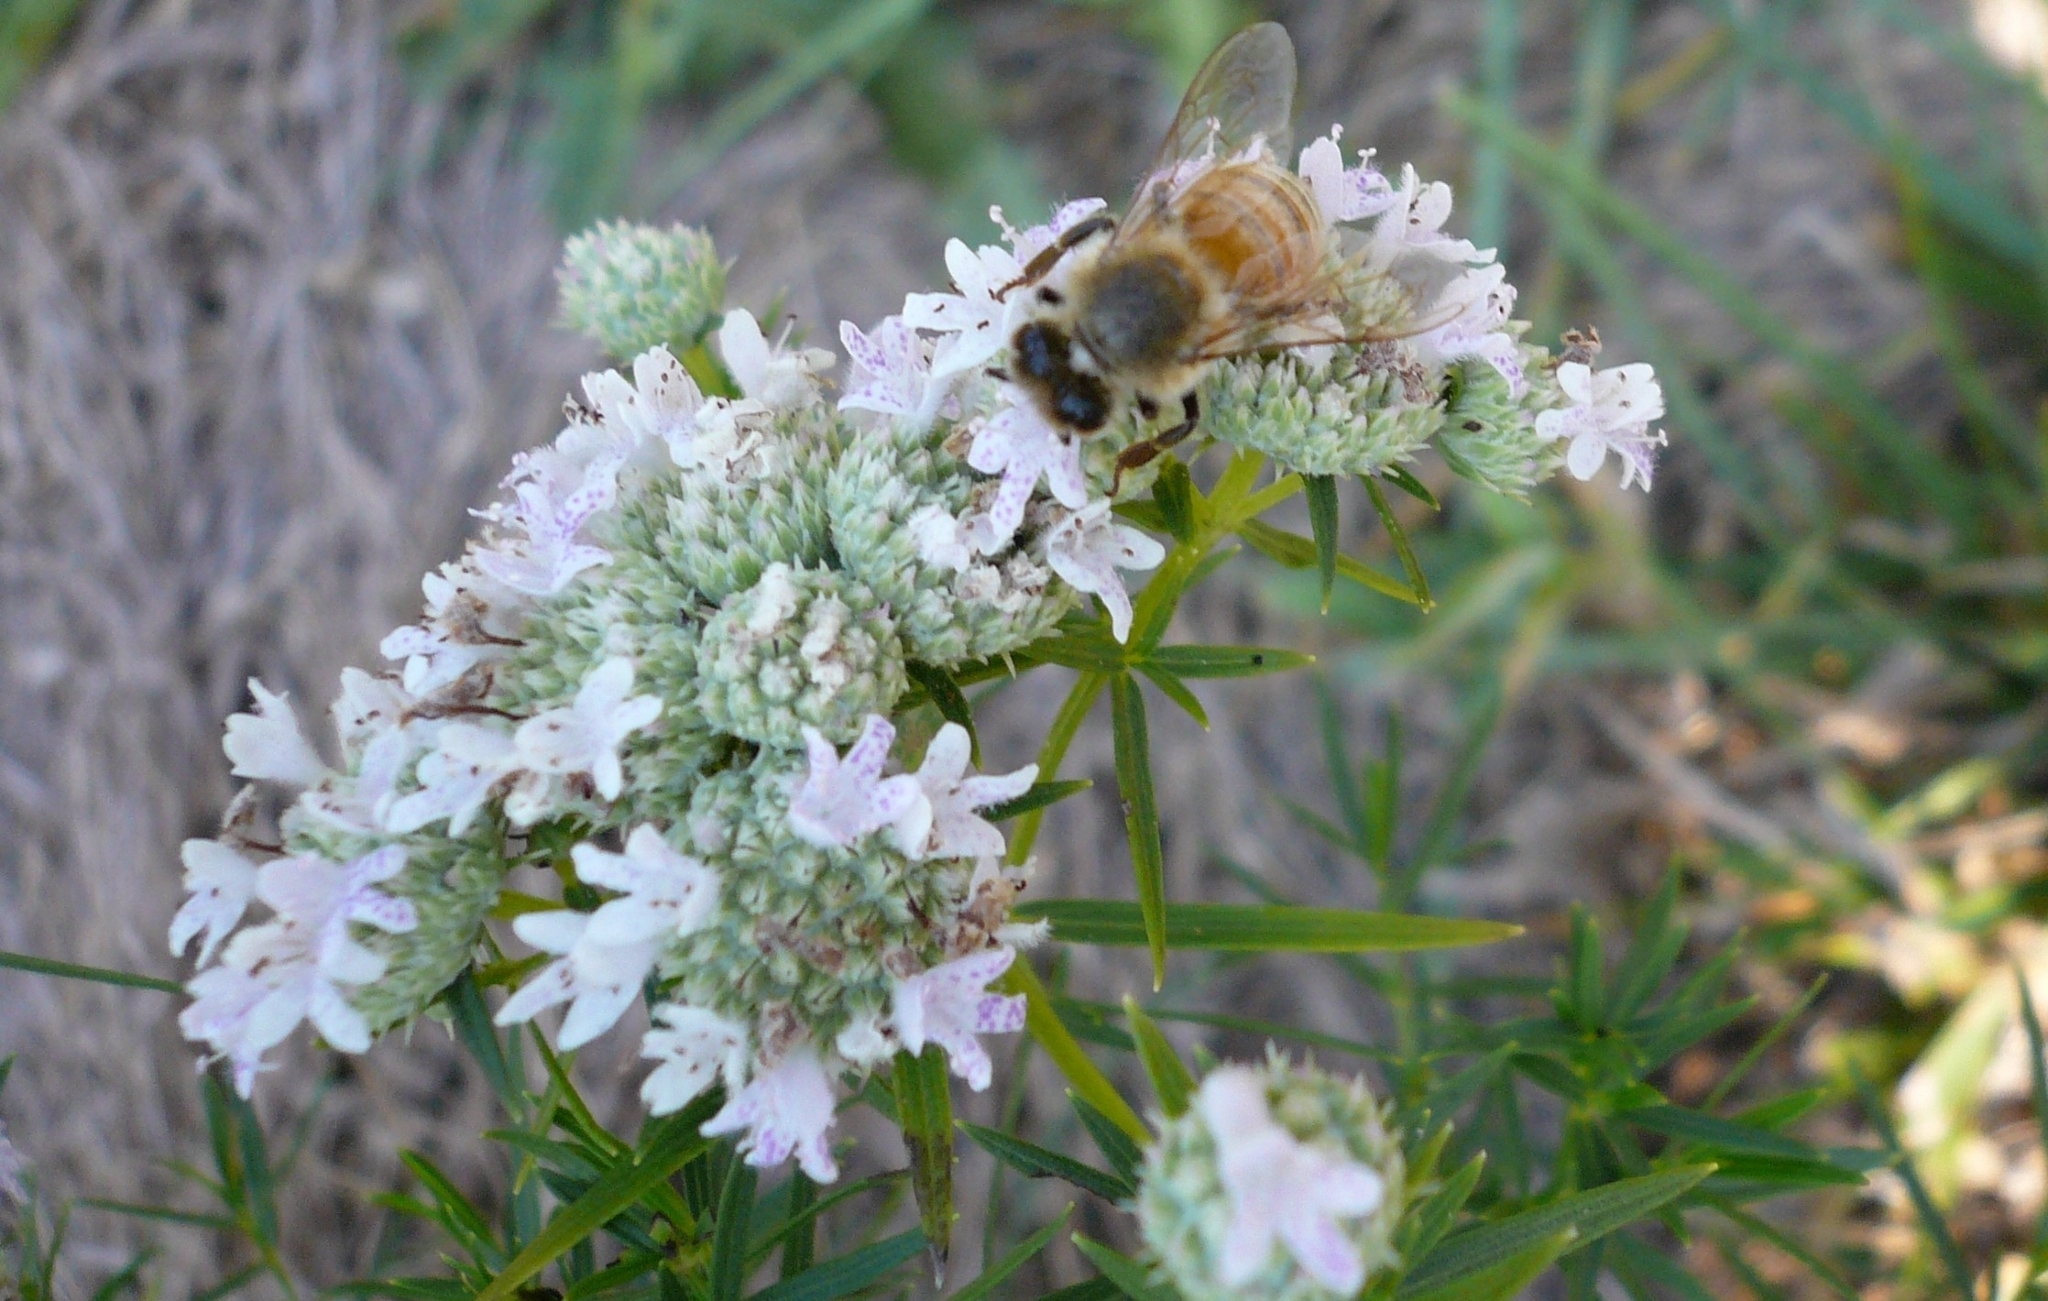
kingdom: Plantae
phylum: Tracheophyta
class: Magnoliopsida
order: Lamiales
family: Lamiaceae
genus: Pycnanthemum
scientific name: Pycnanthemum tenuifolium
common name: Narrow-leaf mountain-mint
